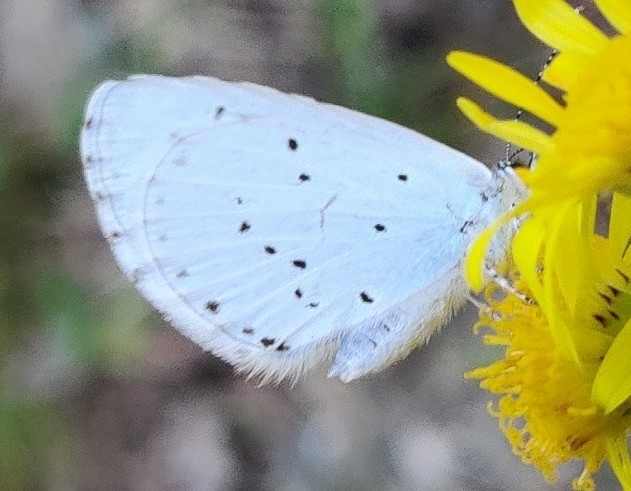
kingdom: Animalia
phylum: Arthropoda
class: Insecta
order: Lepidoptera
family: Lycaenidae
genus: Celastrina
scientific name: Celastrina argiolus
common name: Holly blue
